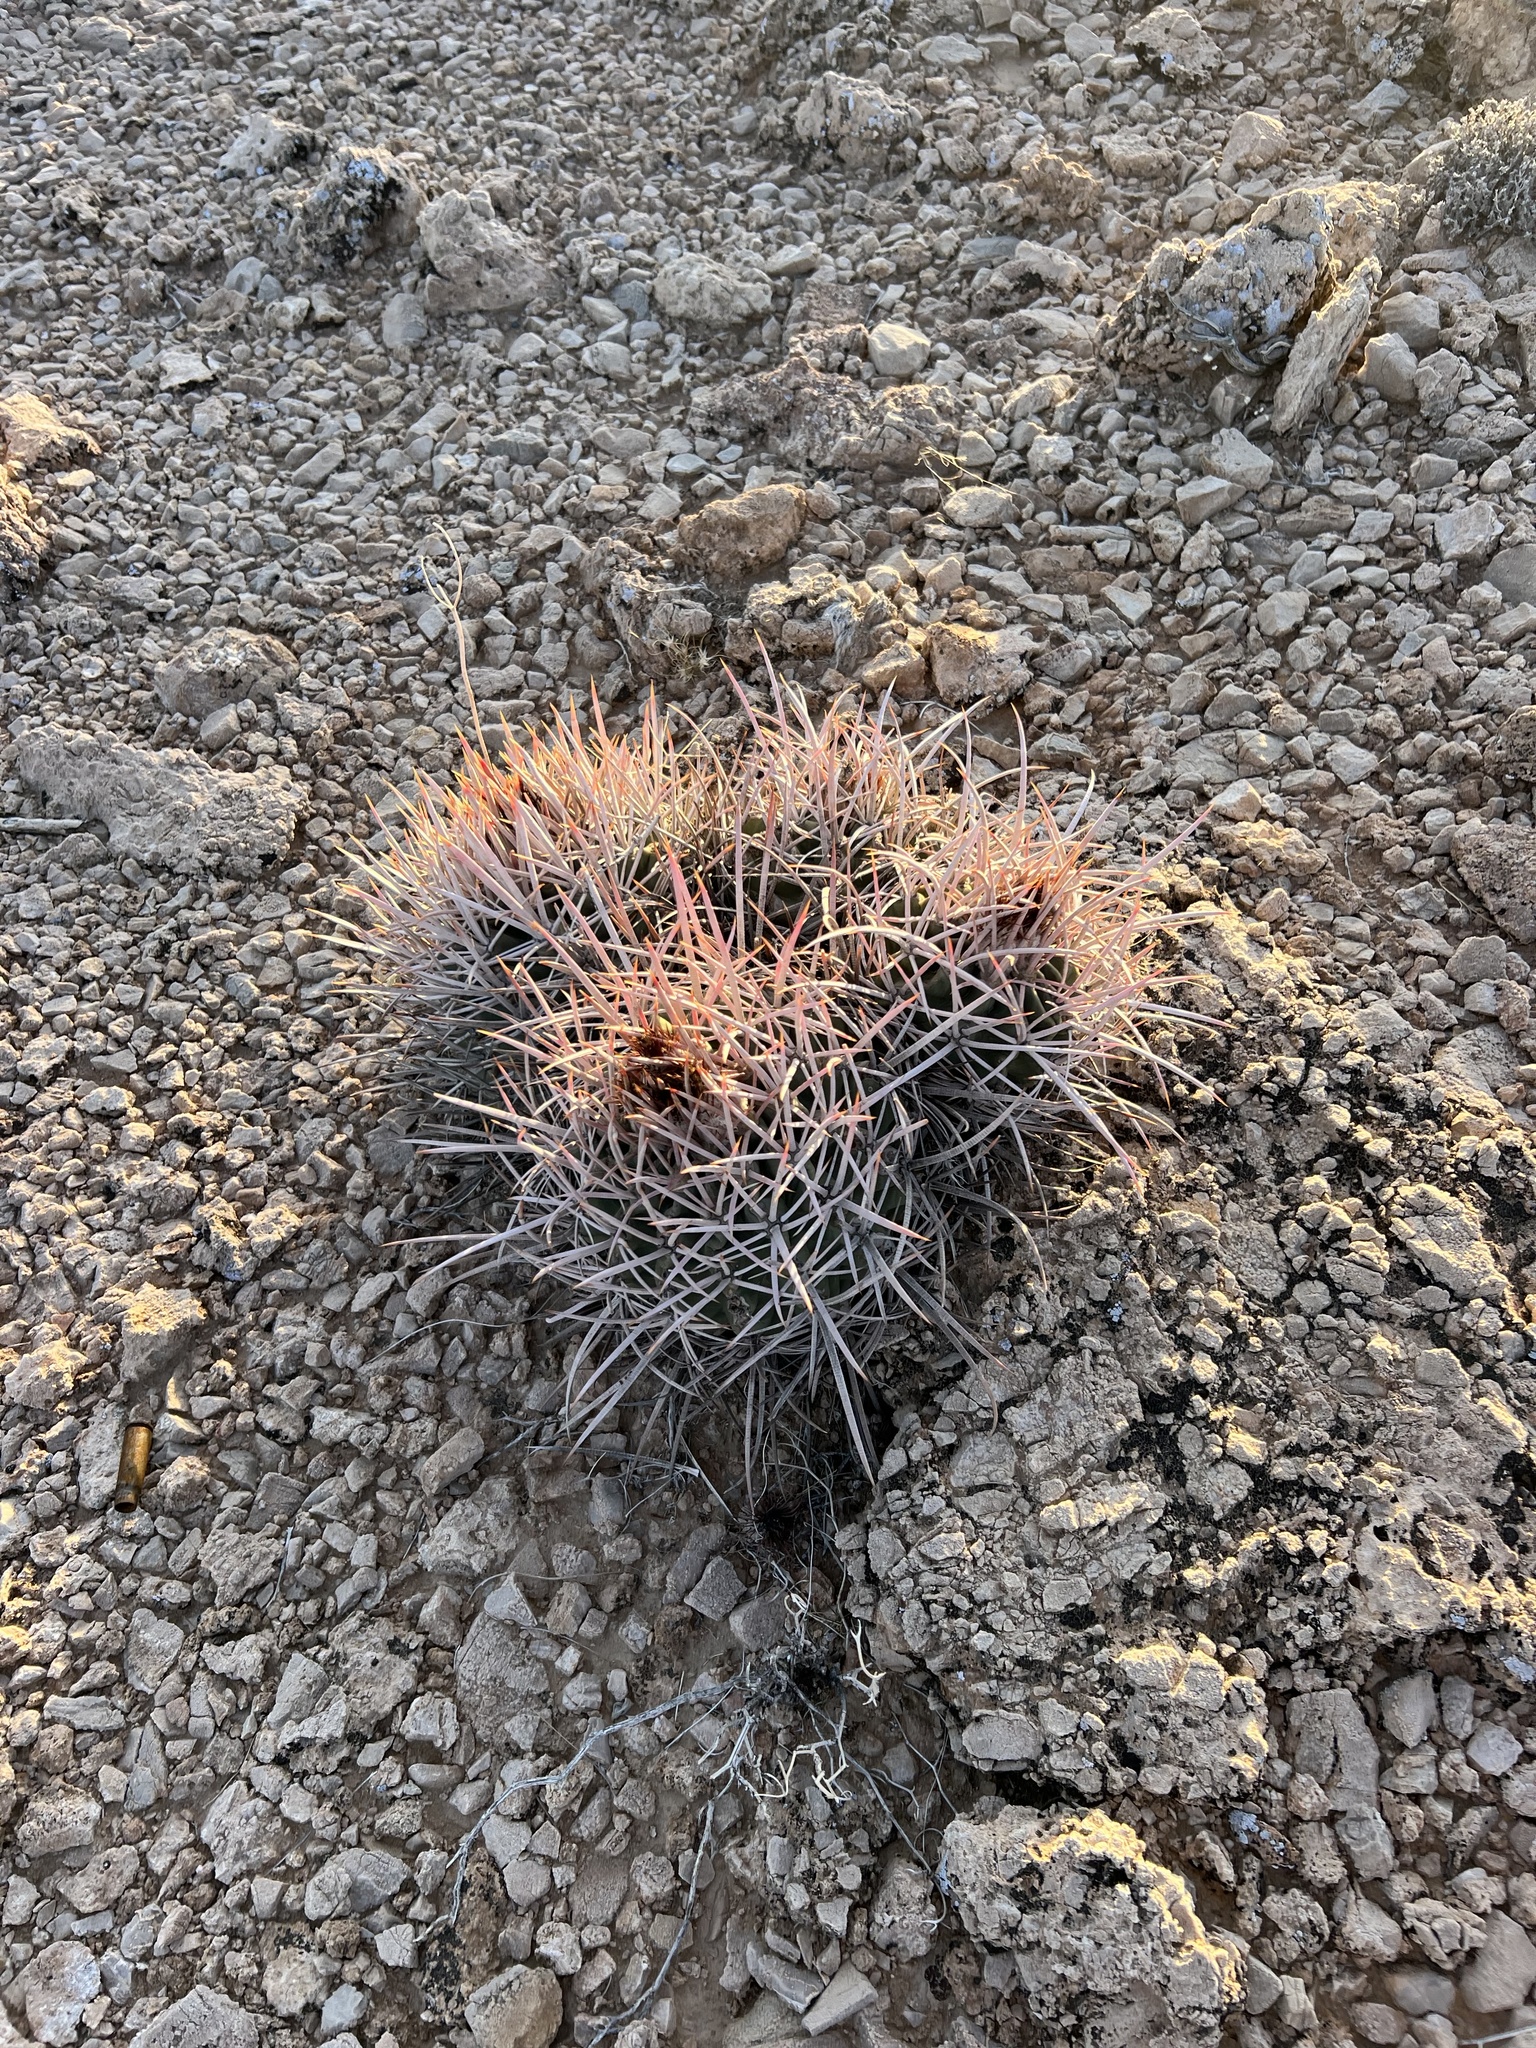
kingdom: Plantae
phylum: Tracheophyta
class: Magnoliopsida
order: Caryophyllales
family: Cactaceae
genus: Echinocactus
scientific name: Echinocactus polycephalus
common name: Cottontop cactus
